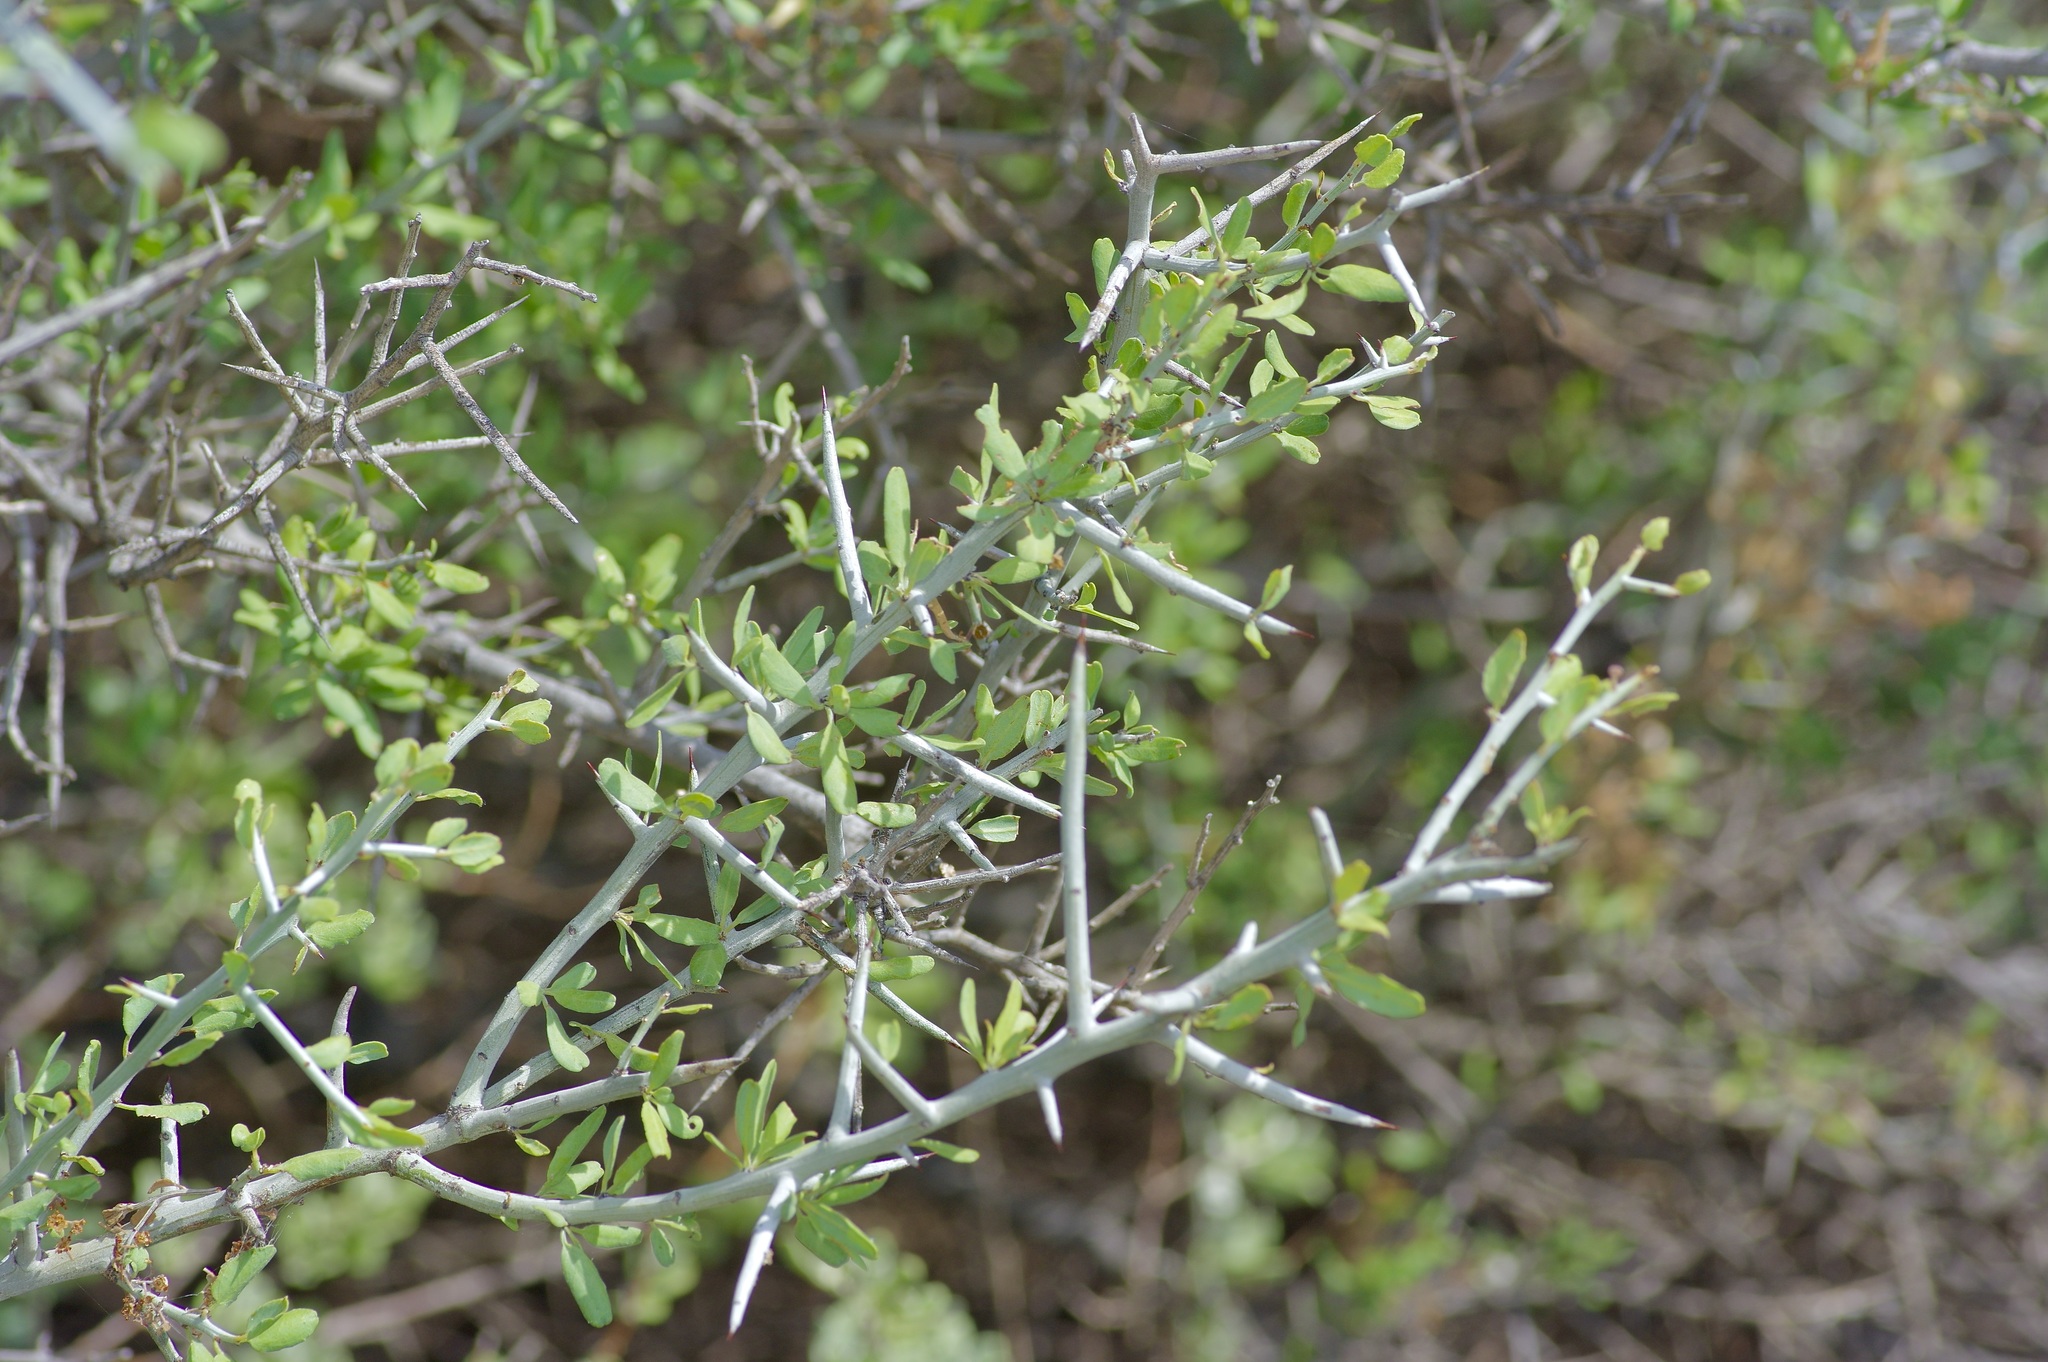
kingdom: Plantae
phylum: Tracheophyta
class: Magnoliopsida
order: Rosales
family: Rhamnaceae
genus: Sarcomphalus
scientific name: Sarcomphalus obtusifolius
